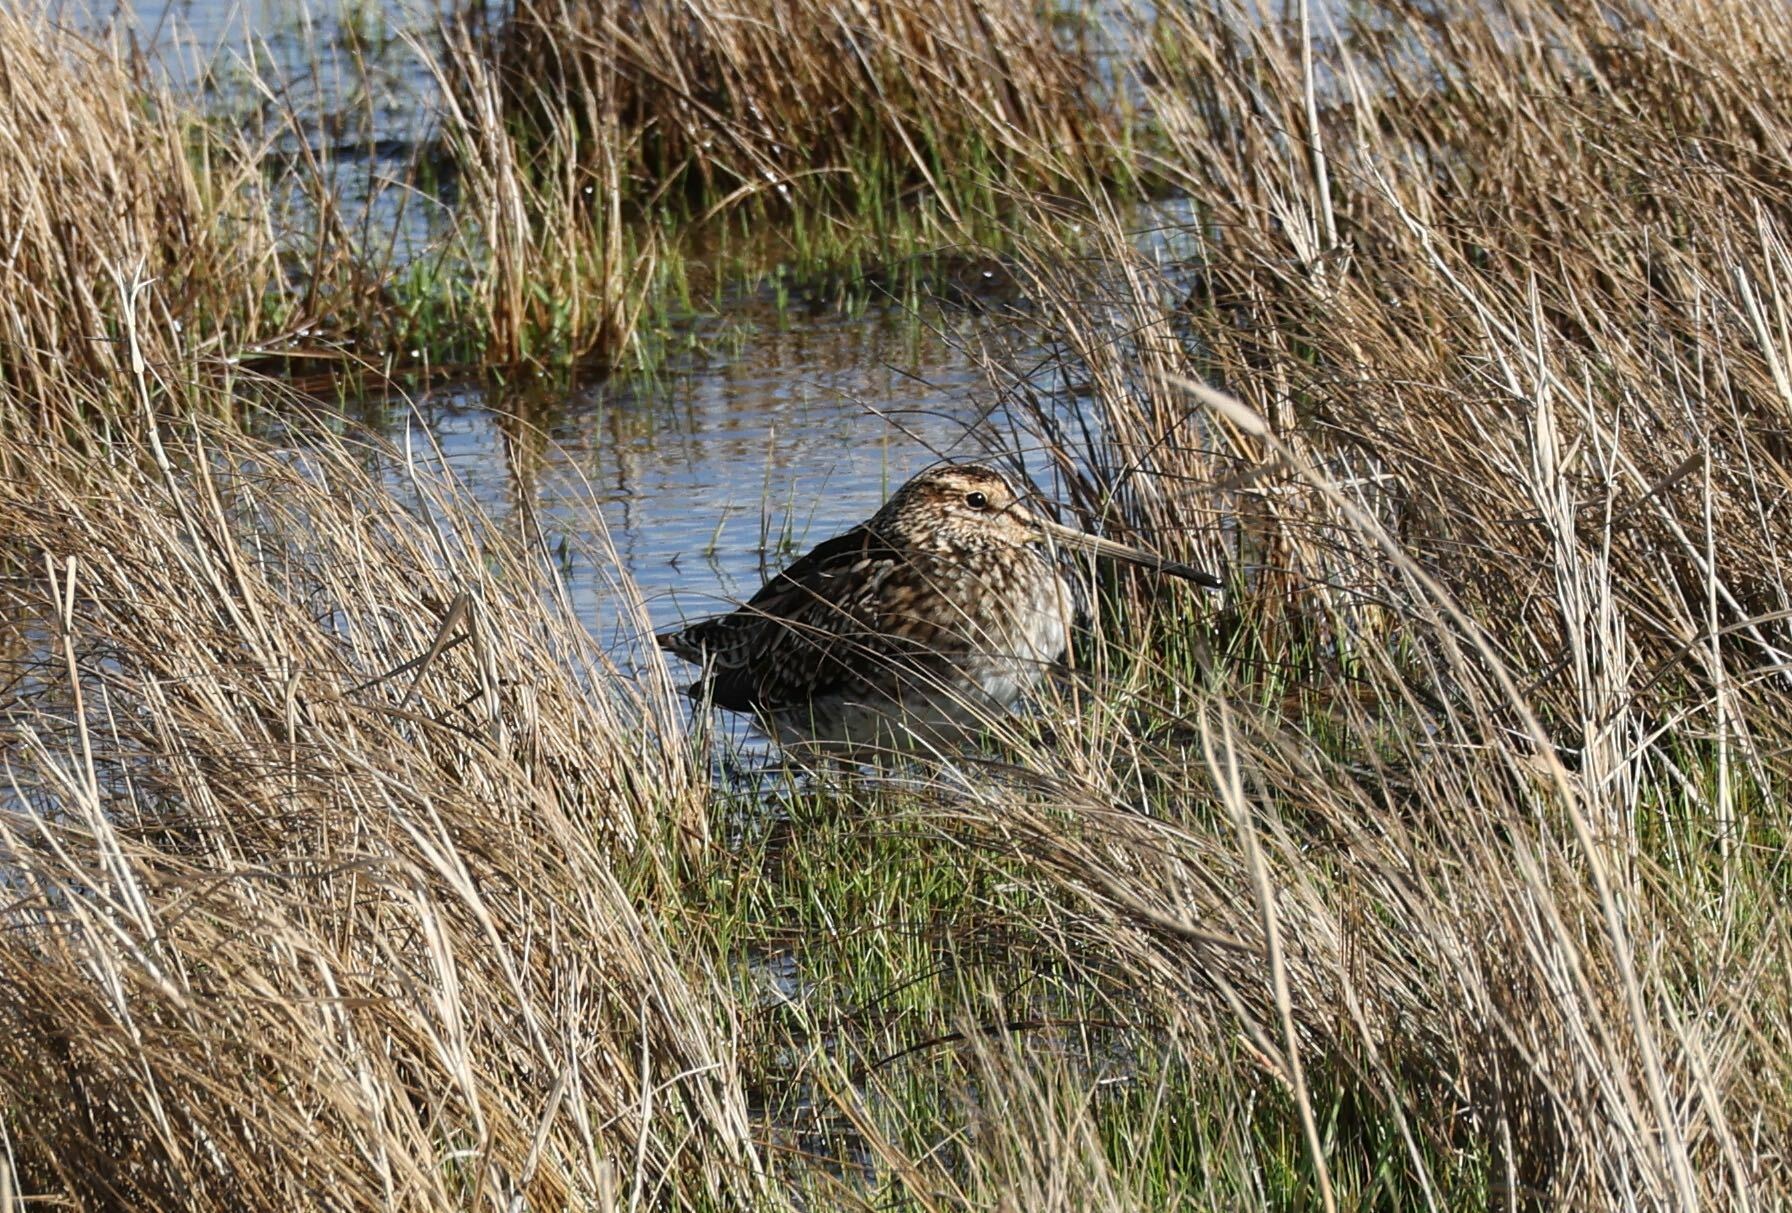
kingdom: Animalia
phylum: Chordata
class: Aves
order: Charadriiformes
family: Scolopacidae
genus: Gallinago
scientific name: Gallinago gallinago
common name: Common snipe
